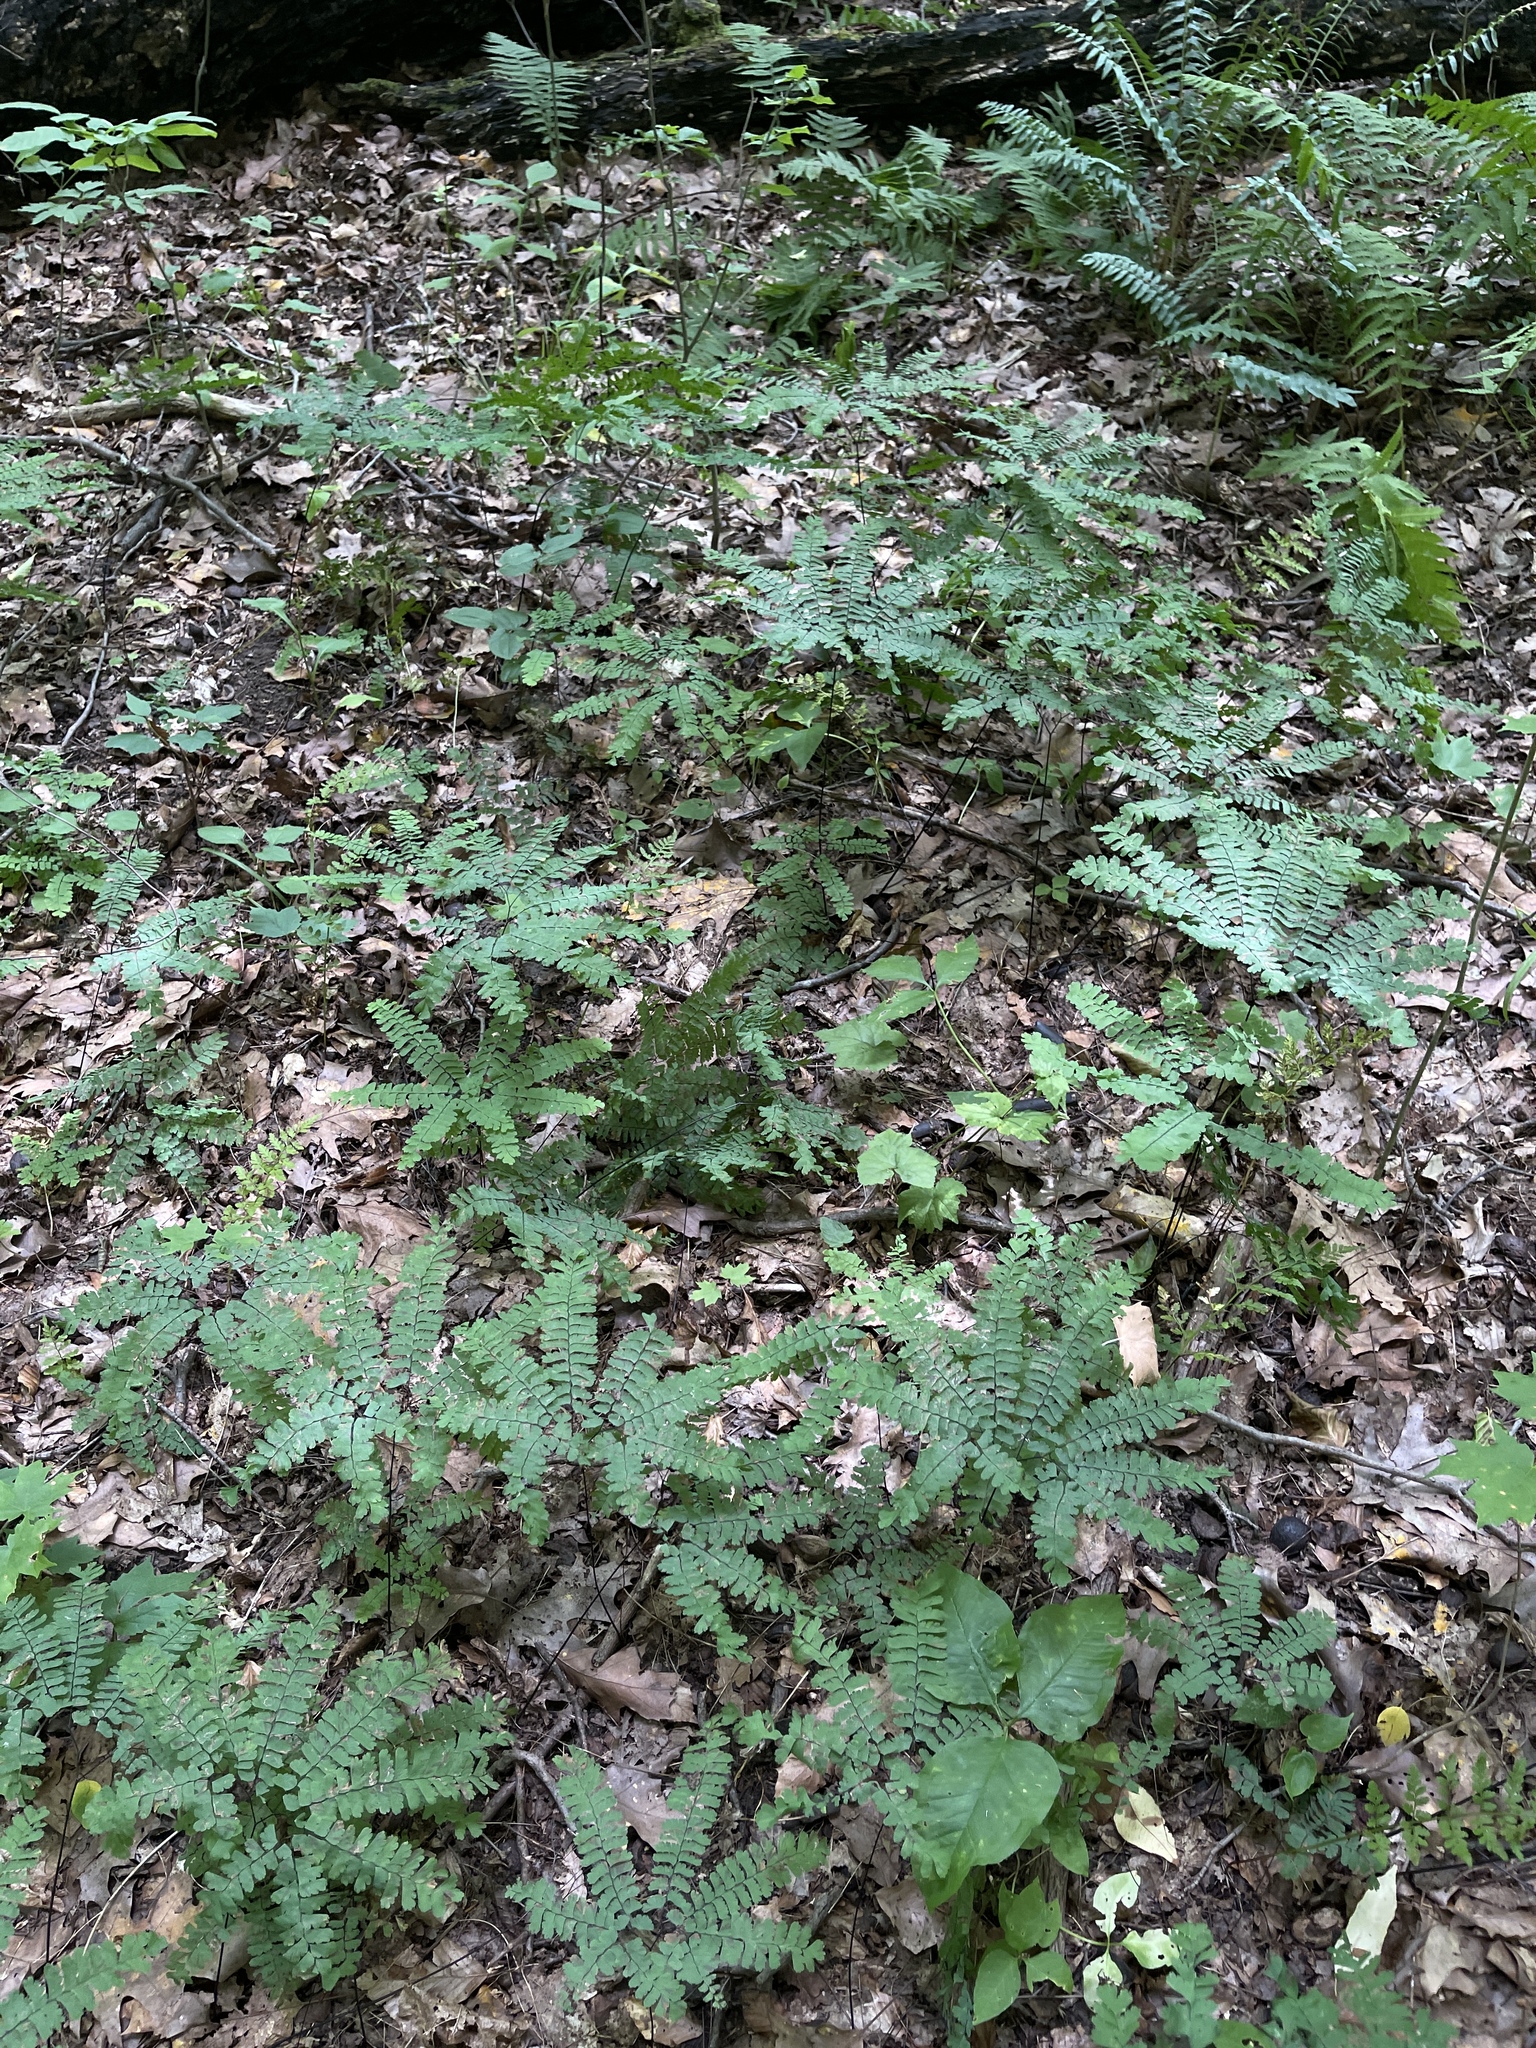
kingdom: Plantae
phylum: Tracheophyta
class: Polypodiopsida
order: Polypodiales
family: Pteridaceae
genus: Adiantum
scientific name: Adiantum pedatum
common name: Five-finger fern
